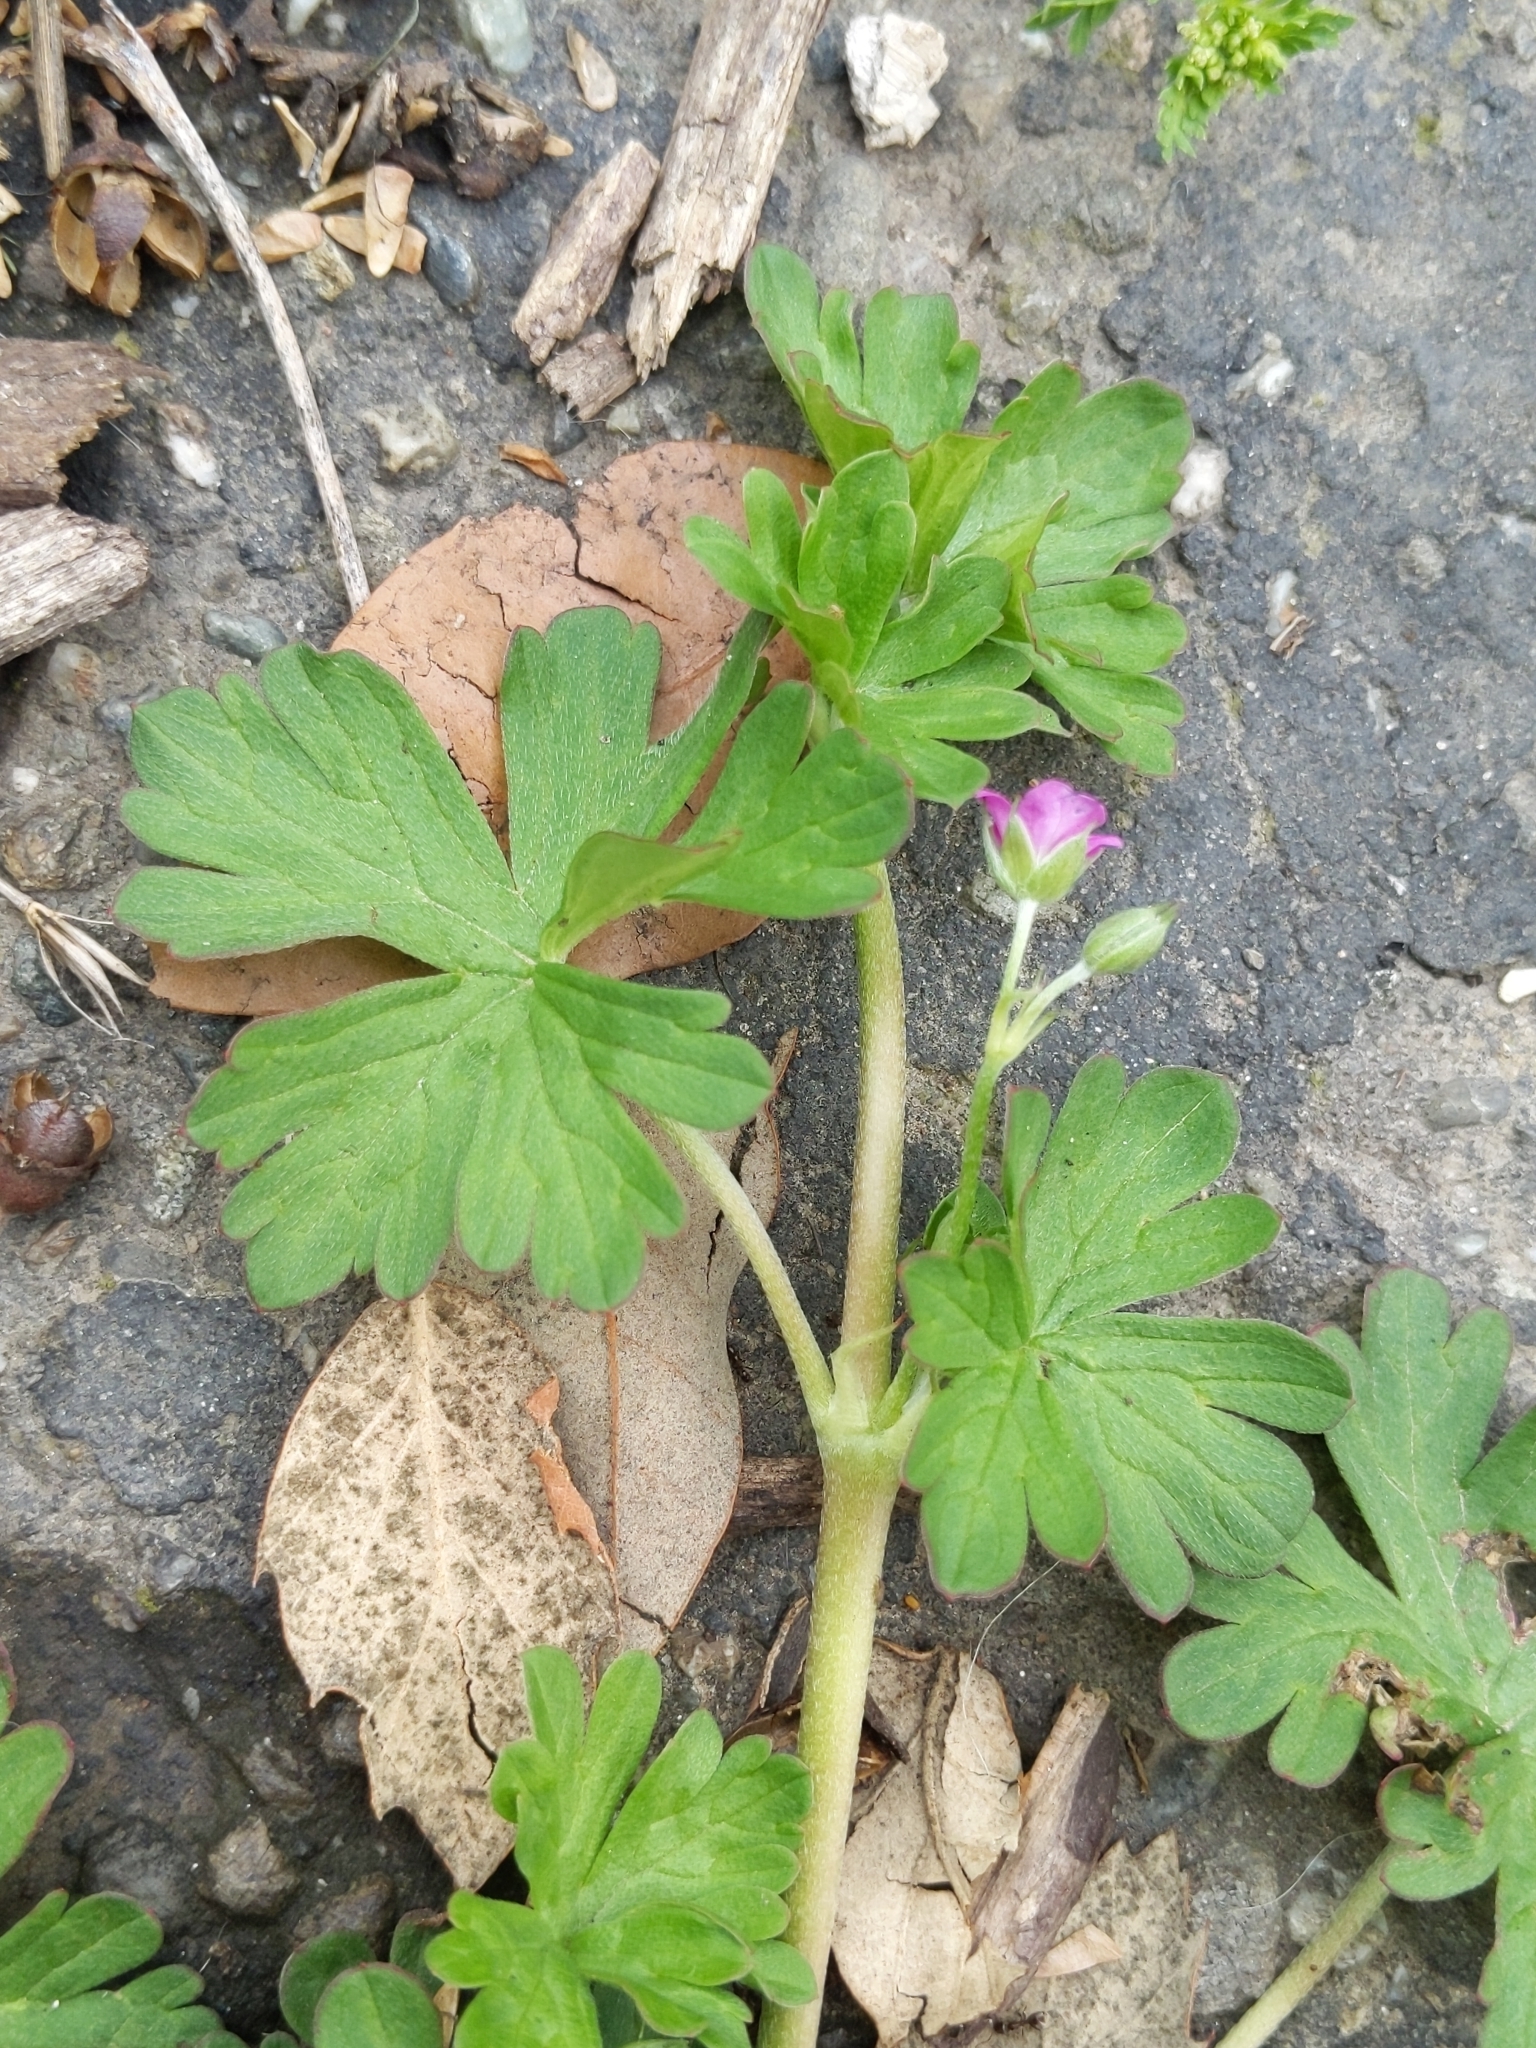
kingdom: Plantae
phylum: Tracheophyta
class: Magnoliopsida
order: Geraniales
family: Geraniaceae
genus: Geranium
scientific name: Geranium core-core
